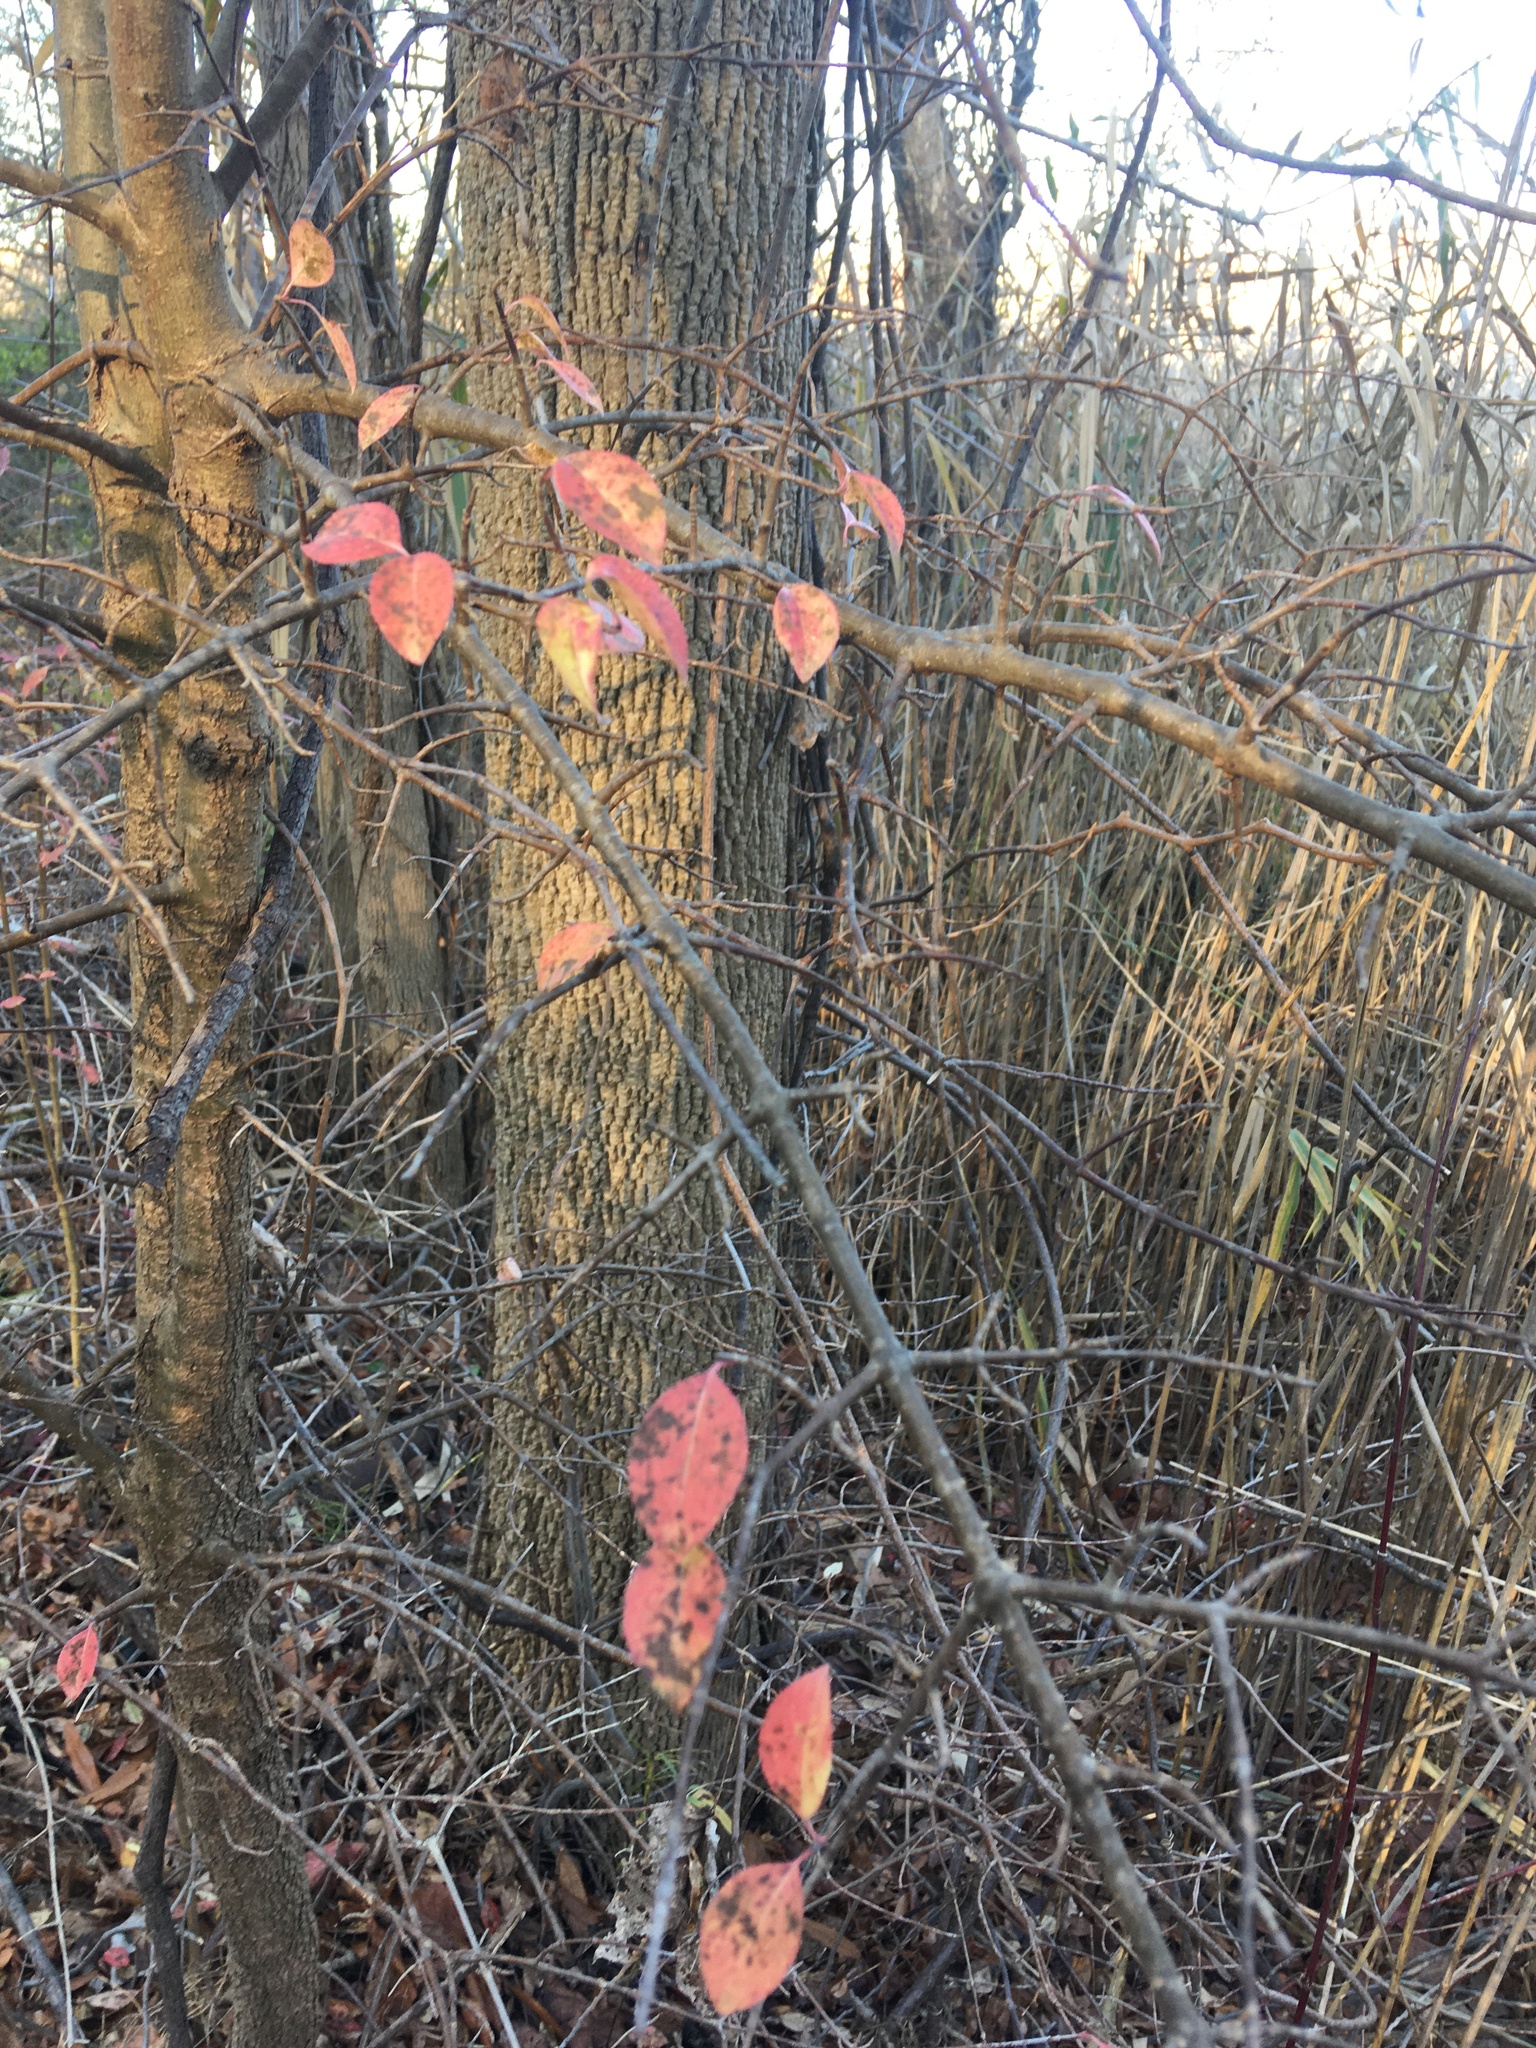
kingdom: Plantae
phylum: Tracheophyta
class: Magnoliopsida
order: Dipsacales
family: Viburnaceae
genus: Viburnum
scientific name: Viburnum prunifolium
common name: Black haw
